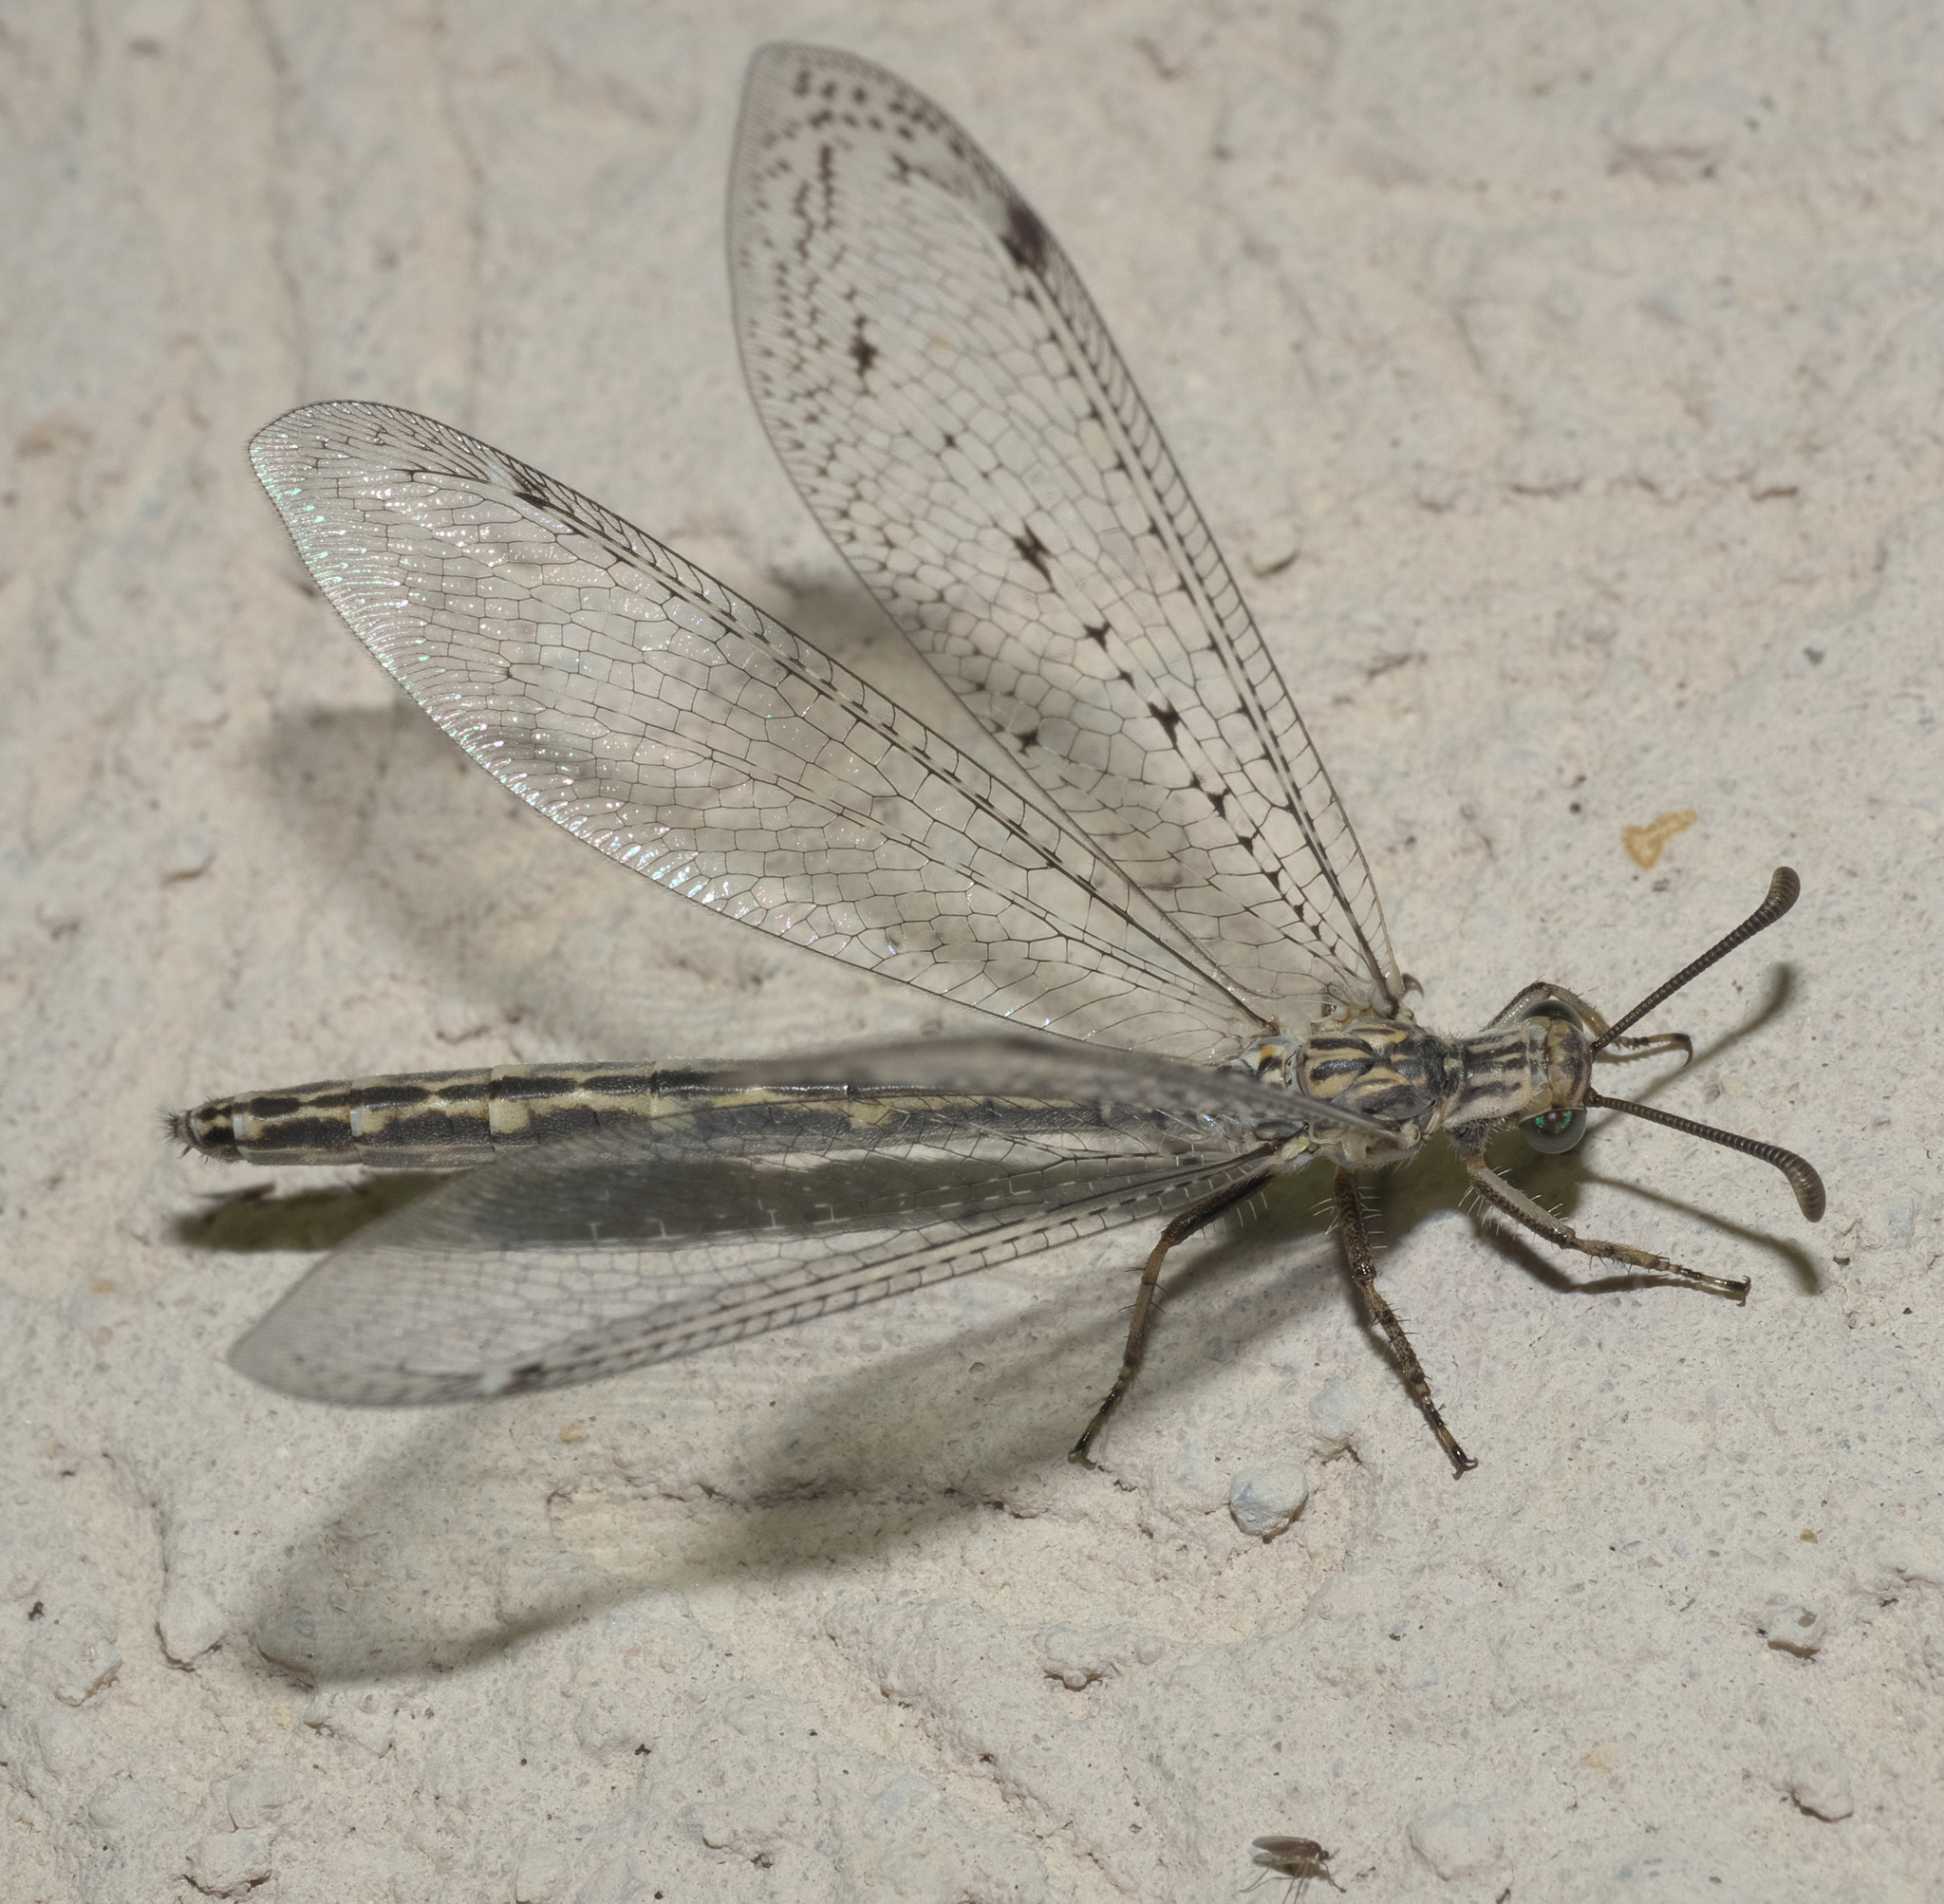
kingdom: Animalia
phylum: Arthropoda
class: Insecta
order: Neuroptera
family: Myrmeleontidae
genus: Scotoleon
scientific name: Scotoleon carrizonus
